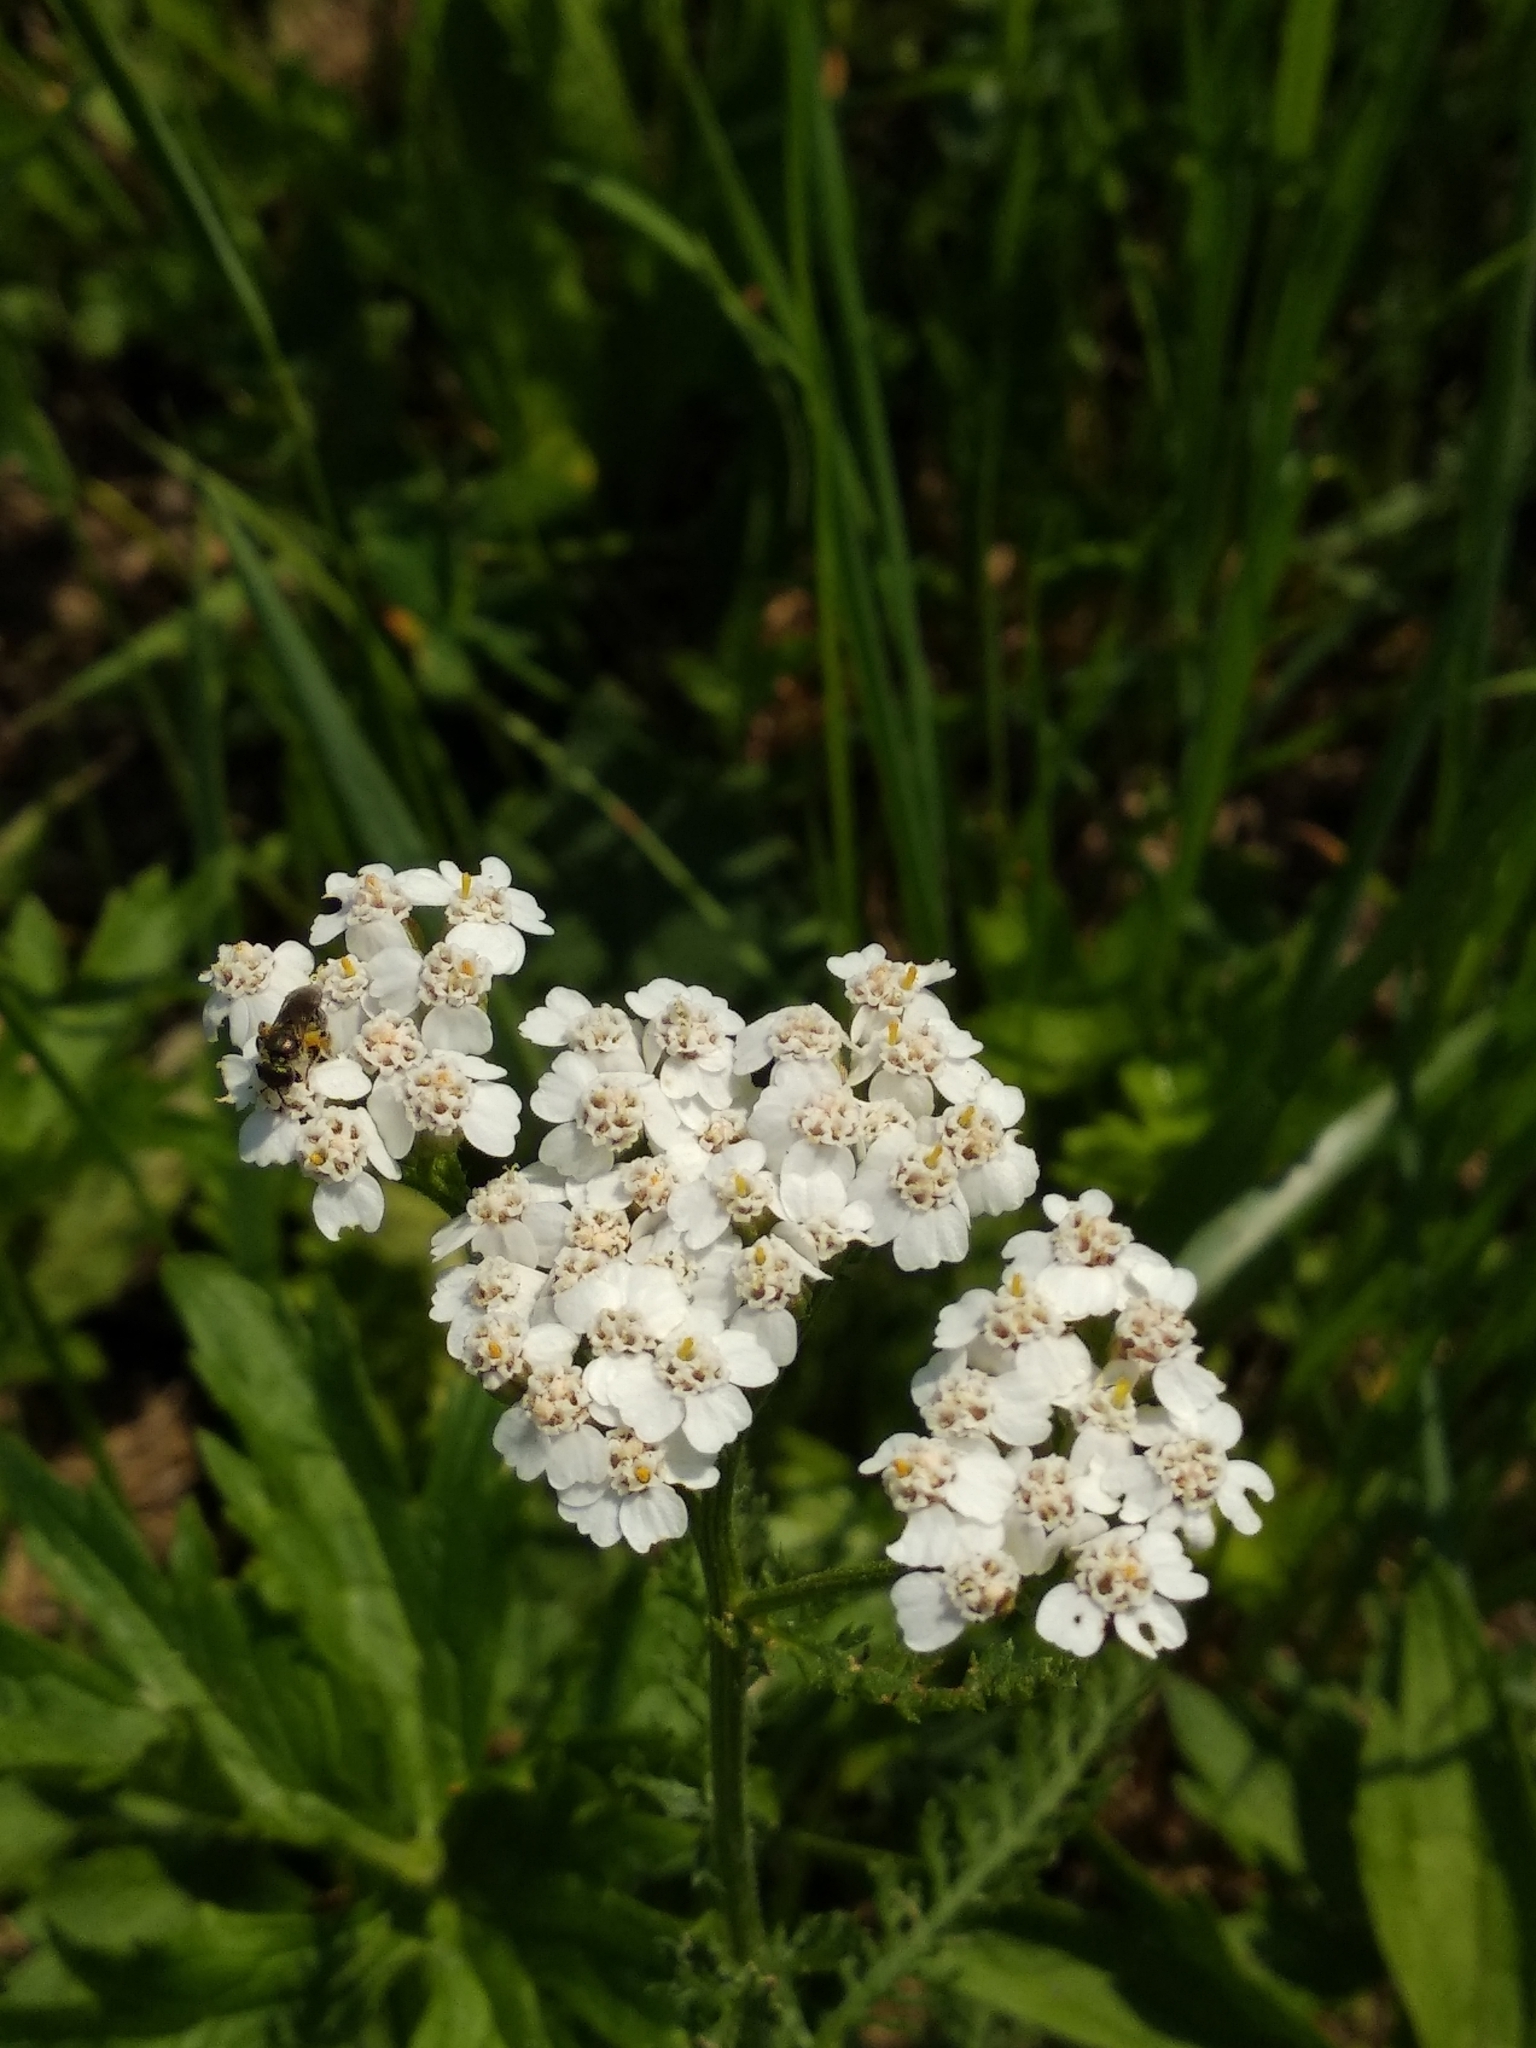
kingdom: Plantae
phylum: Tracheophyta
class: Magnoliopsida
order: Asterales
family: Asteraceae
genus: Achillea
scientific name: Achillea millefolium
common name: Yarrow
